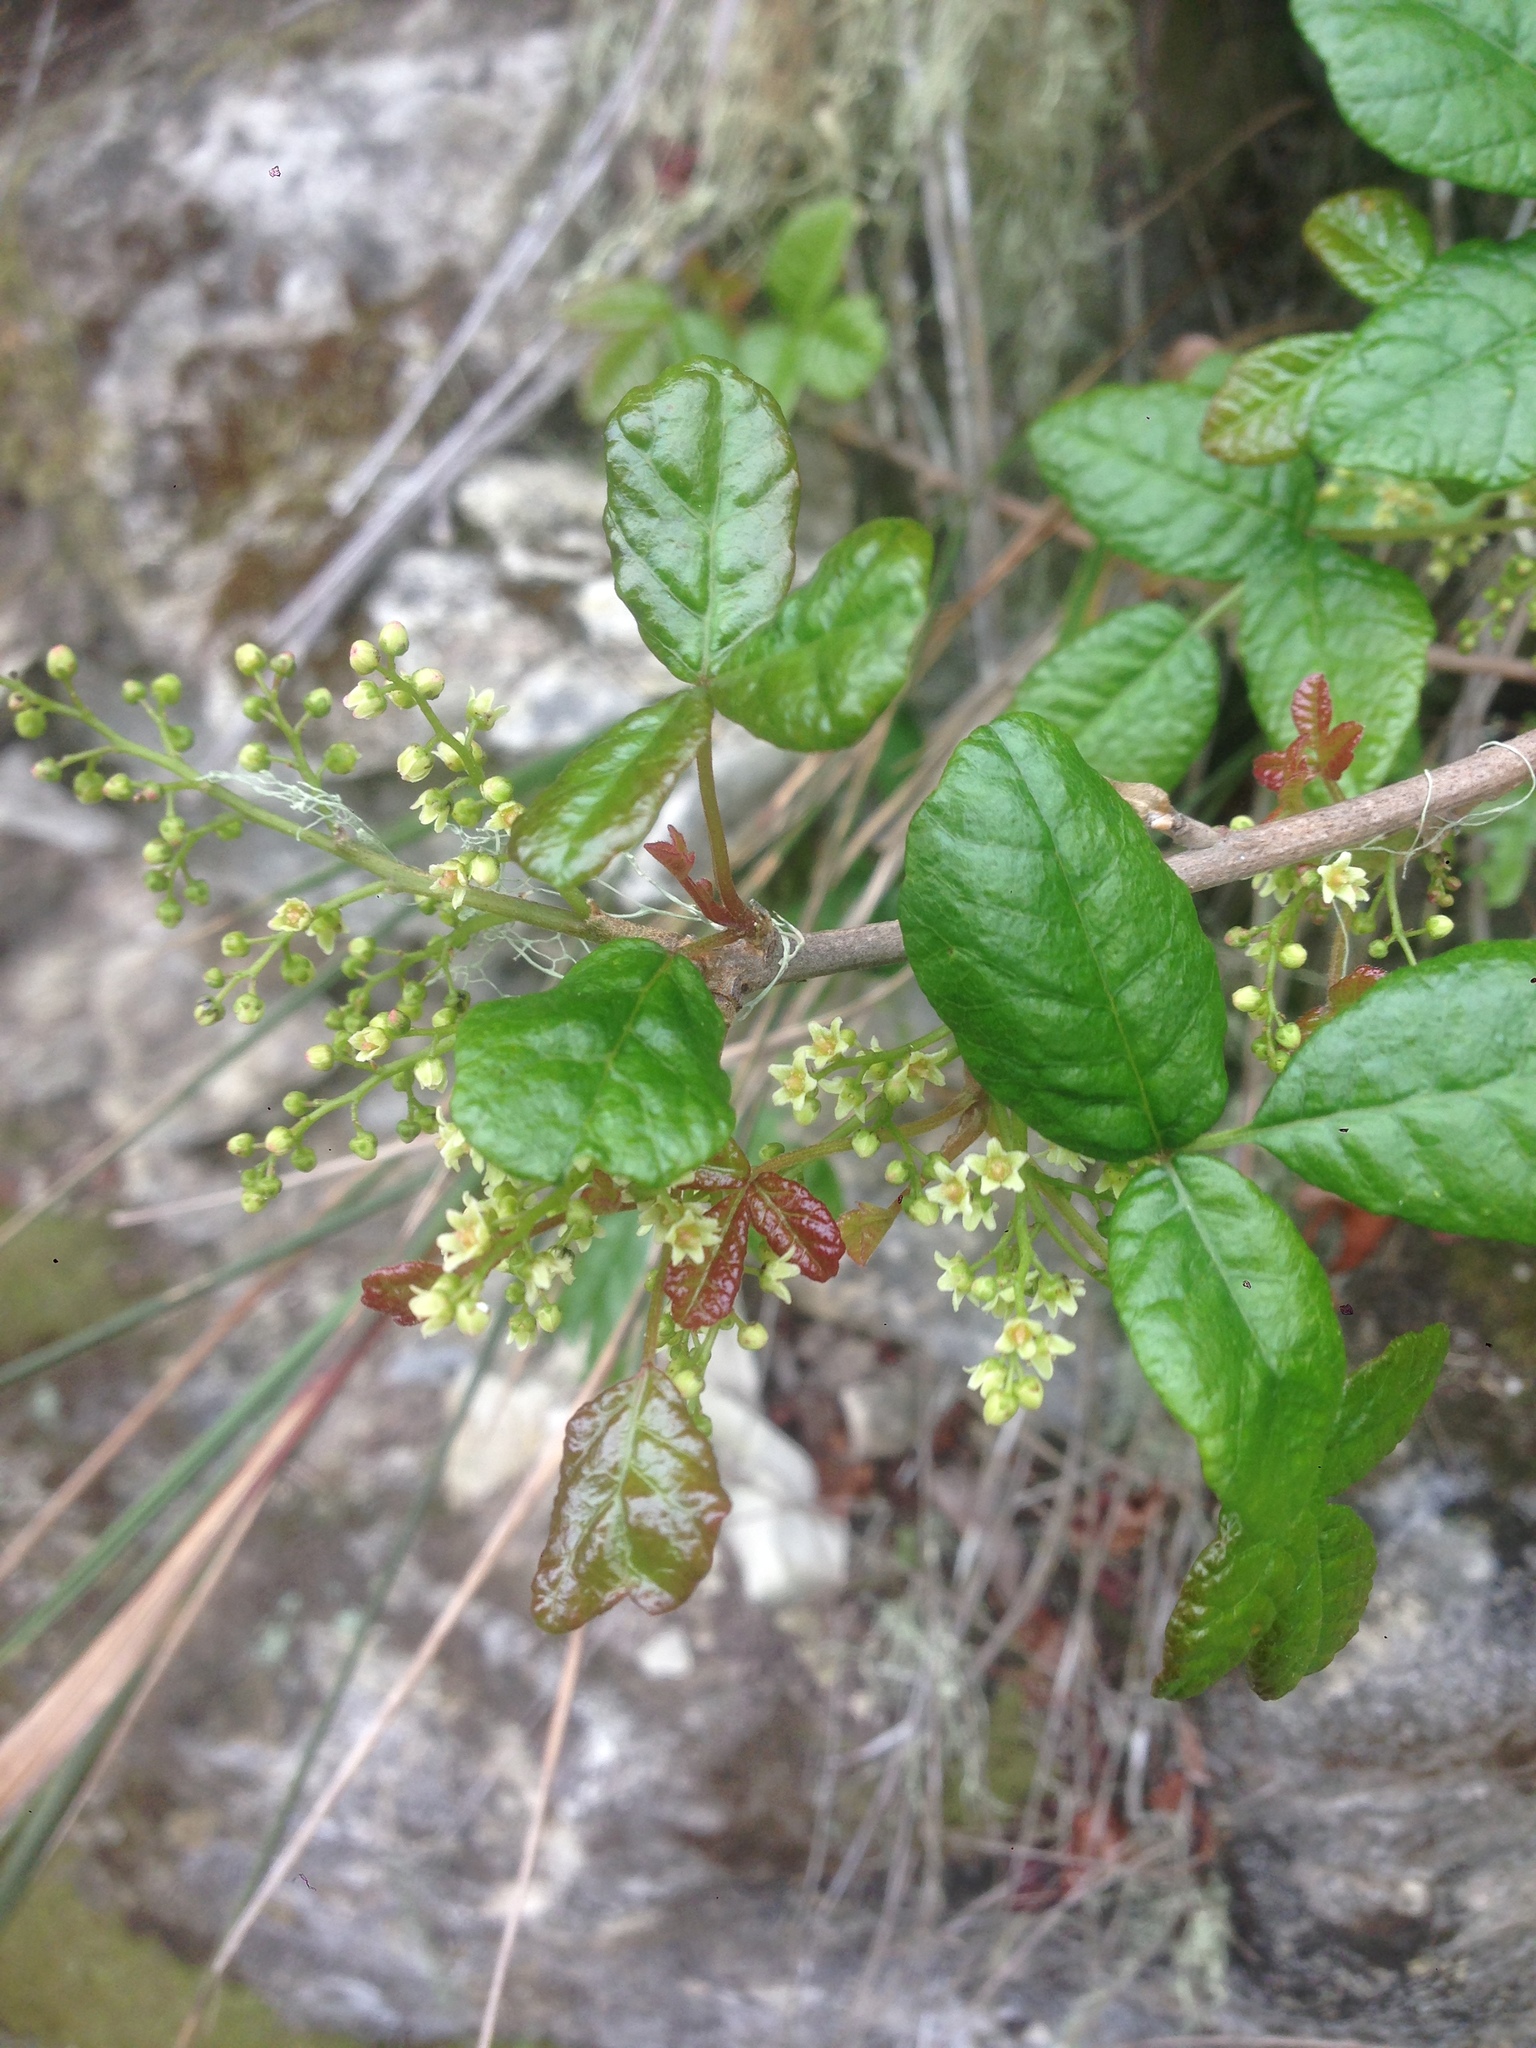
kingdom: Plantae
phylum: Tracheophyta
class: Magnoliopsida
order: Sapindales
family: Anacardiaceae
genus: Toxicodendron
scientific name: Toxicodendron diversilobum
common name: Pacific poison-oak
